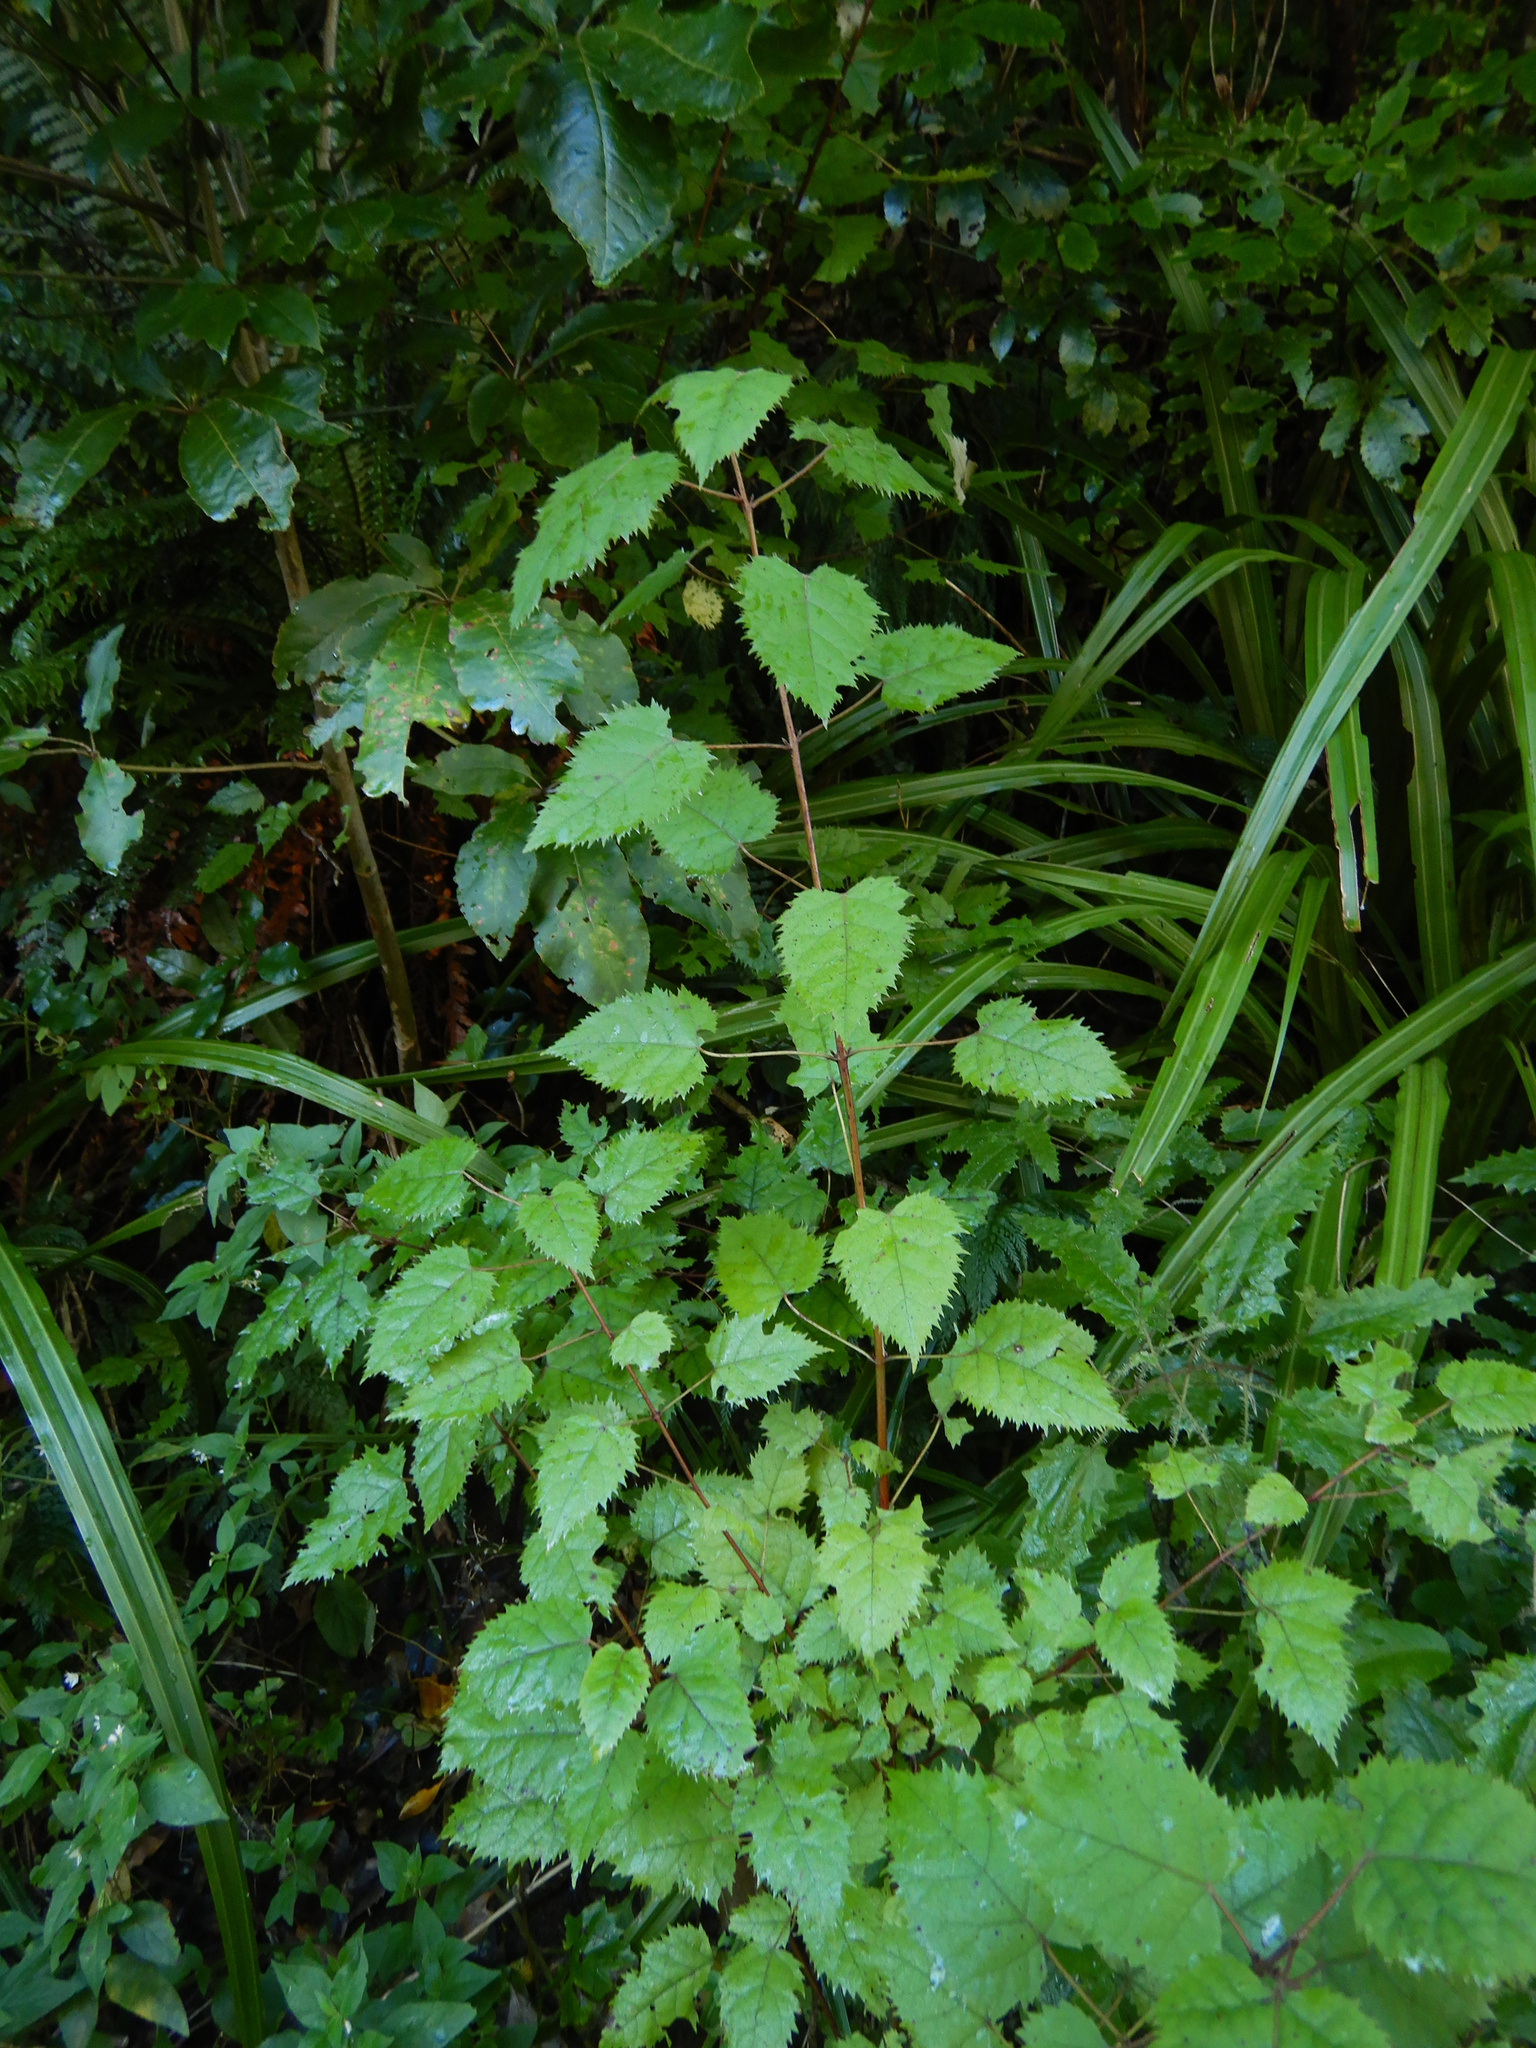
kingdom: Plantae
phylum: Tracheophyta
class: Magnoliopsida
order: Oxalidales
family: Elaeocarpaceae
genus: Aristotelia
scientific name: Aristotelia serrata
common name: New zealand wineberry
